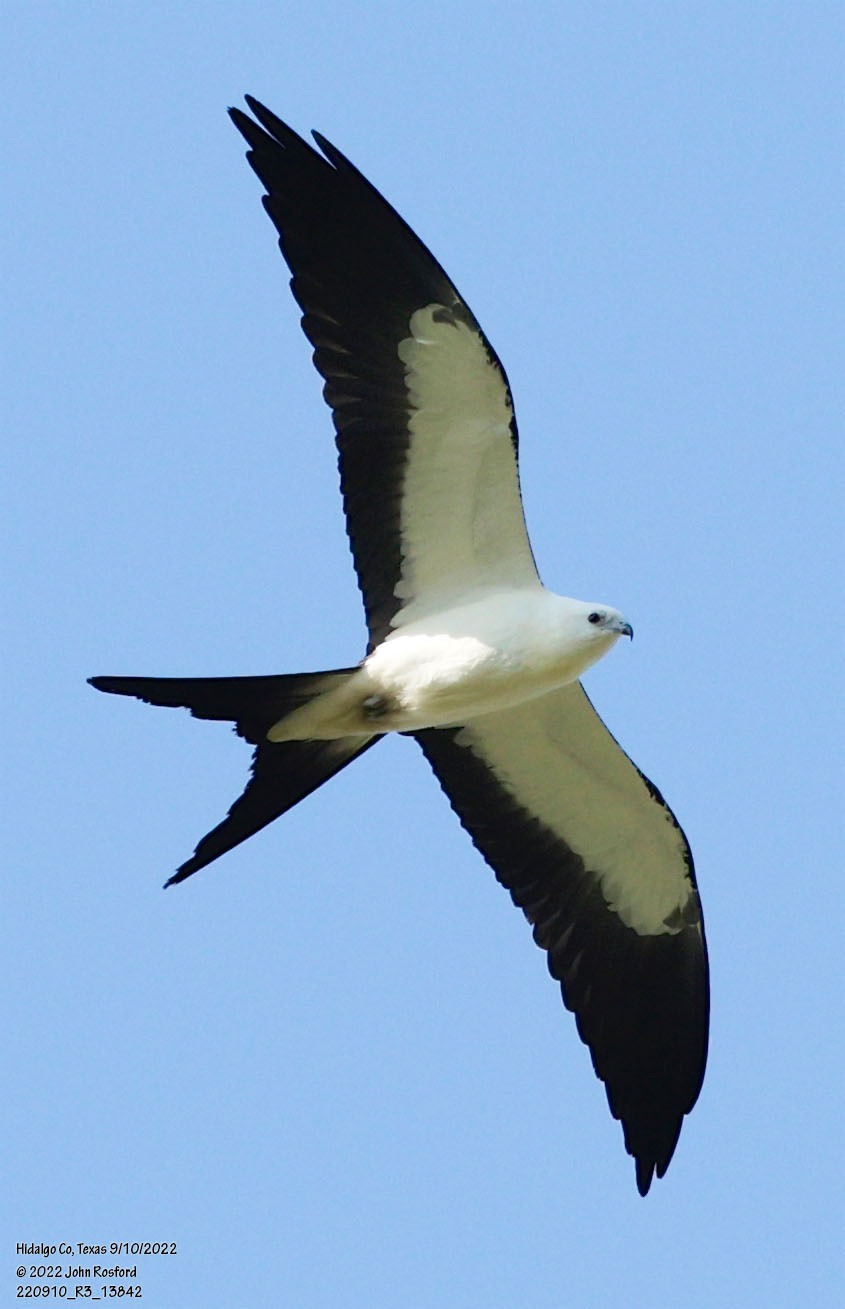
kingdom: Animalia
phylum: Chordata
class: Aves
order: Accipitriformes
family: Accipitridae
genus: Elanoides
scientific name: Elanoides forficatus
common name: Swallow-tailed kite
